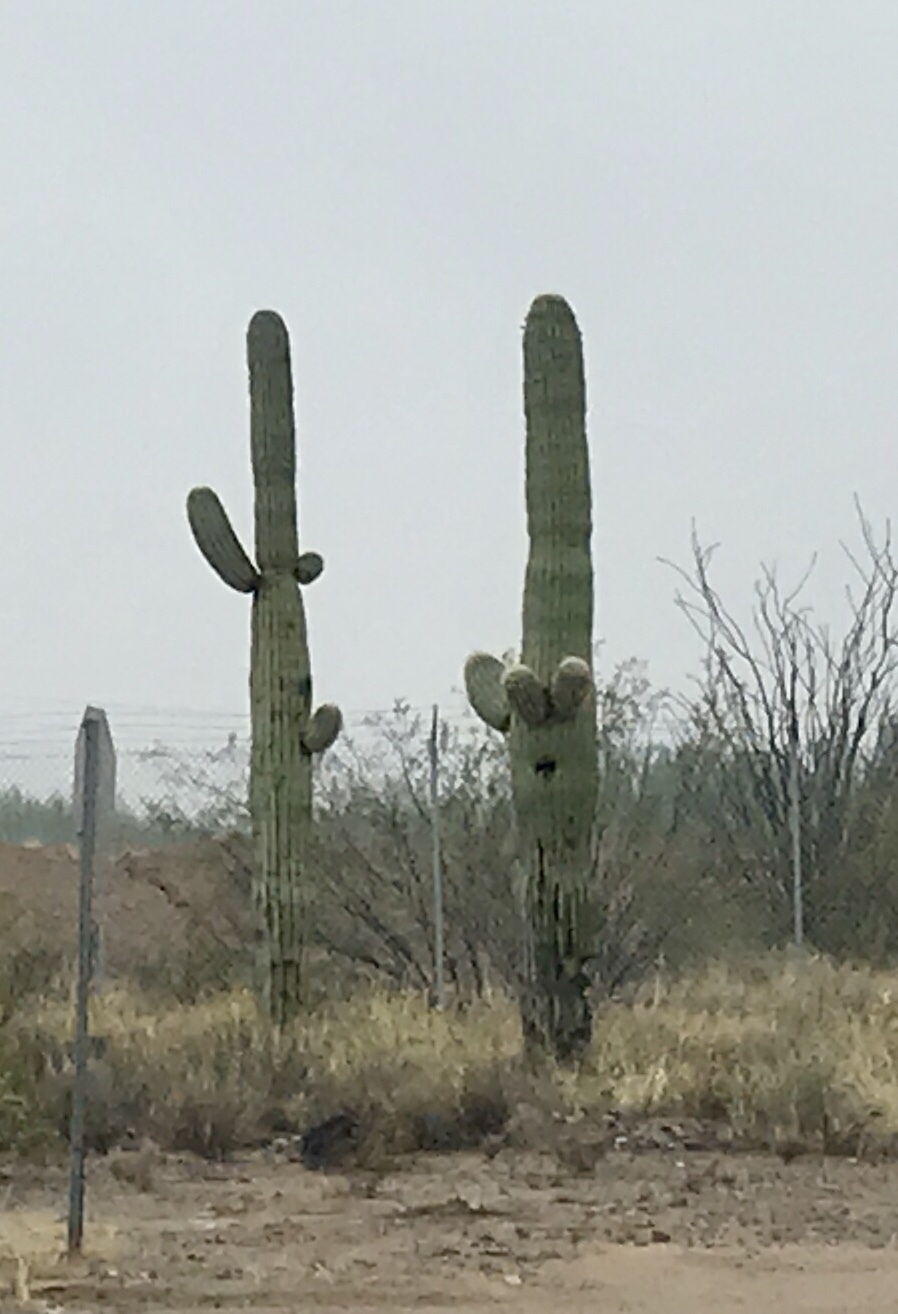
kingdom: Plantae
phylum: Tracheophyta
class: Magnoliopsida
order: Caryophyllales
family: Cactaceae
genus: Carnegiea
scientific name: Carnegiea gigantea
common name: Saguaro
